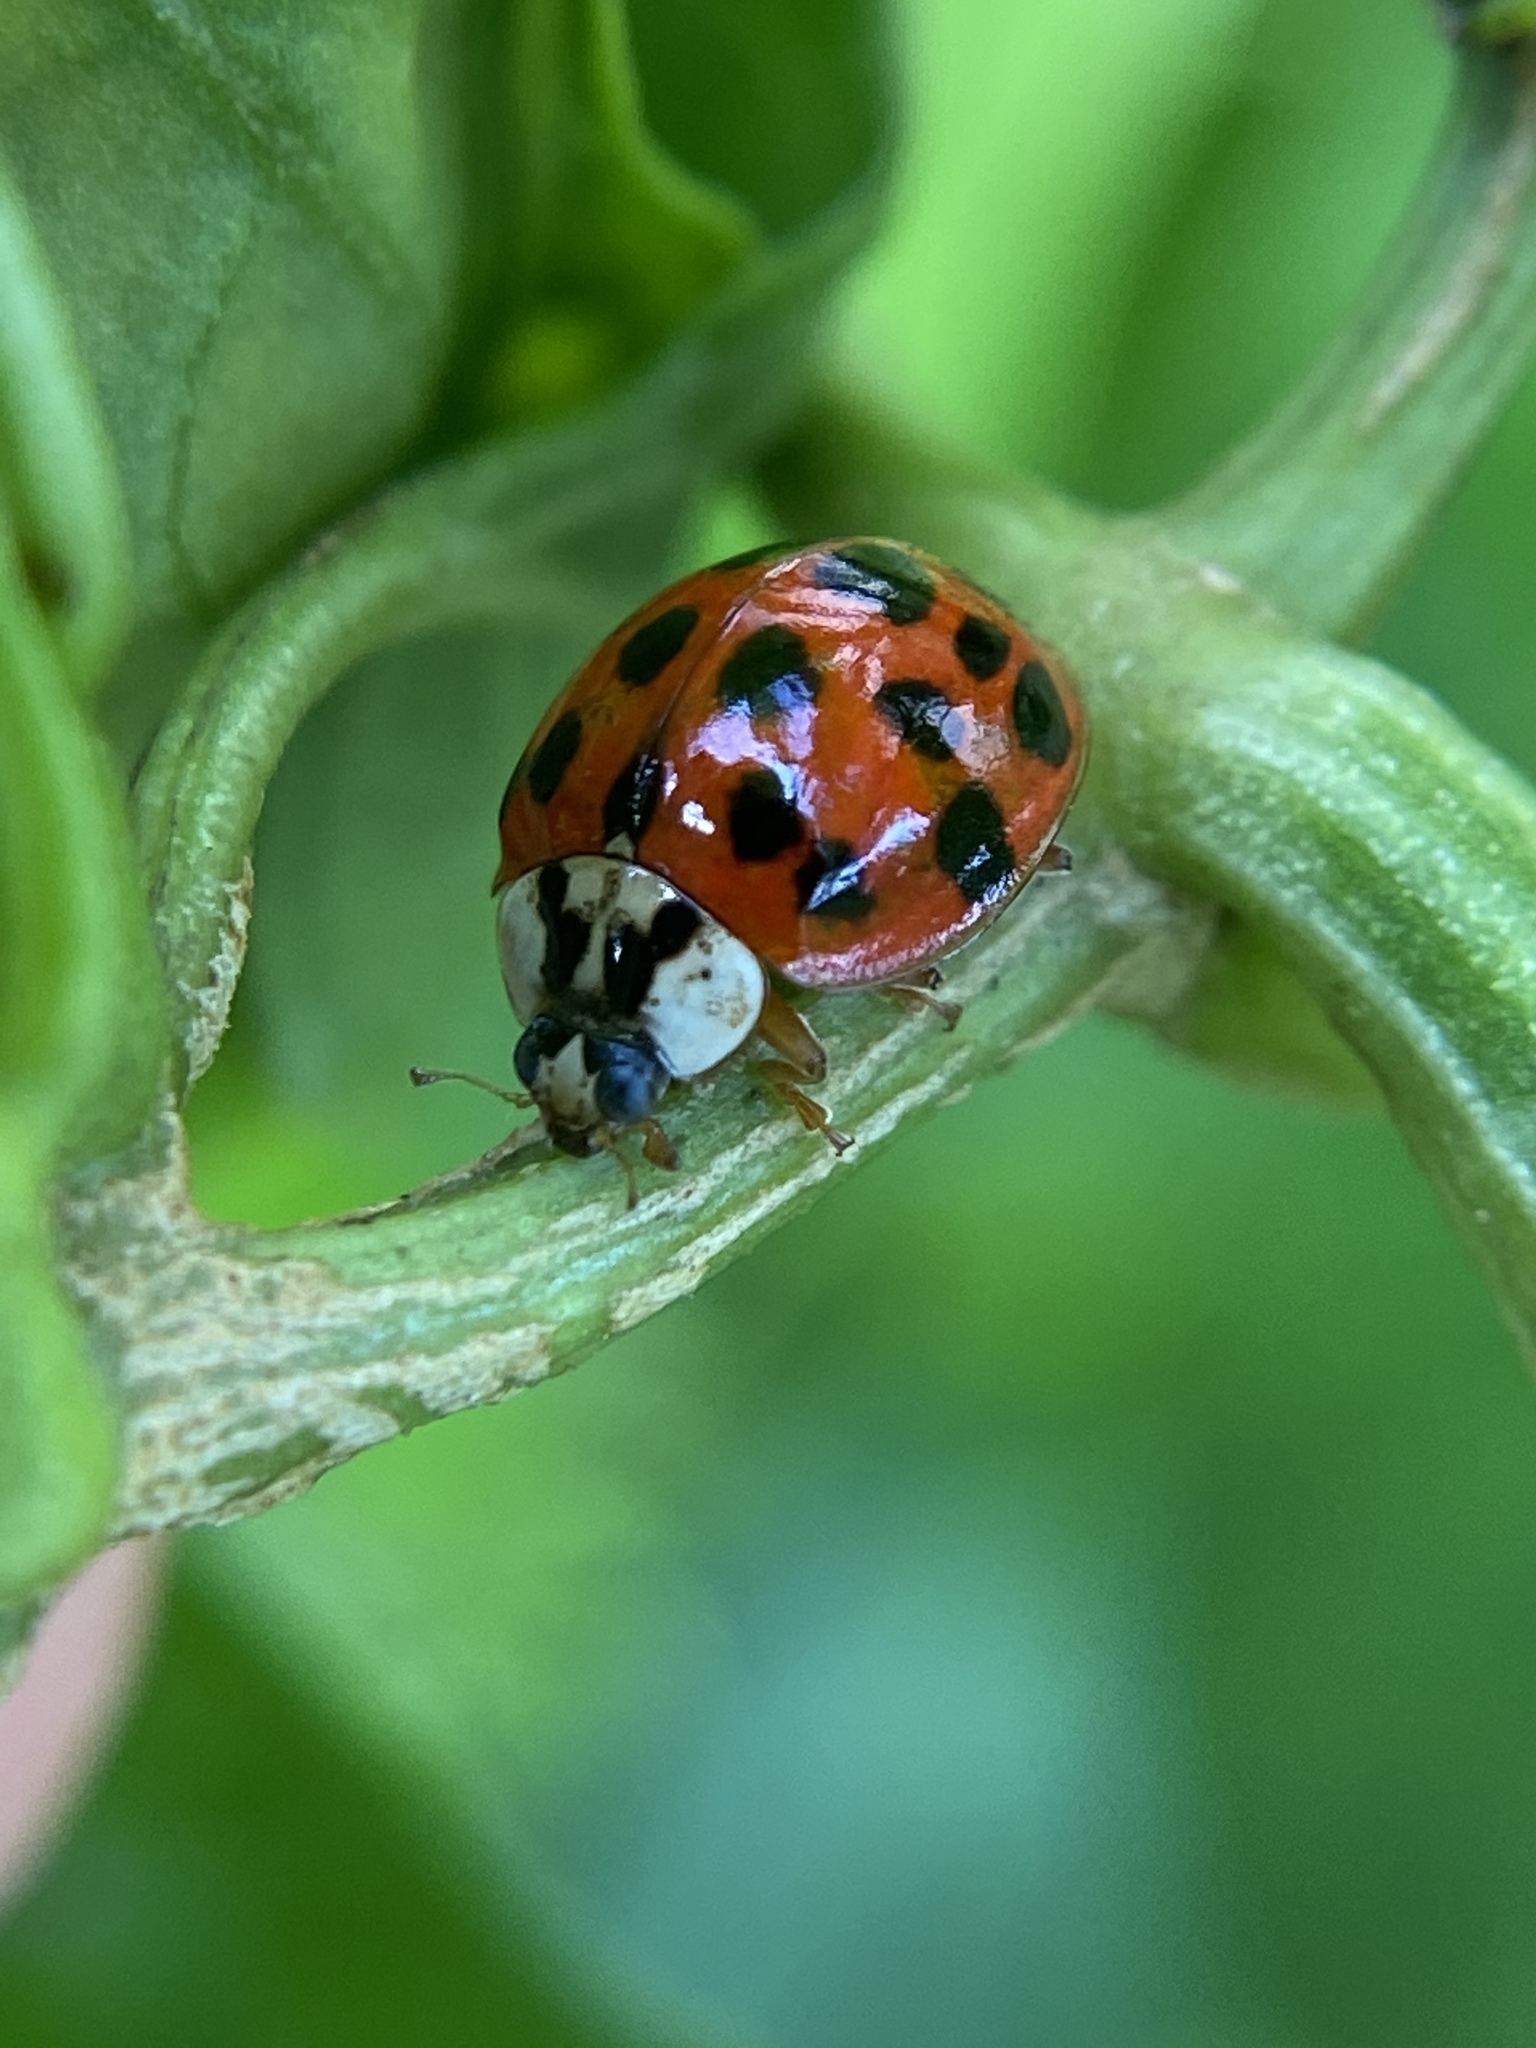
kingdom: Animalia
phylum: Arthropoda
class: Insecta
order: Coleoptera
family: Coccinellidae
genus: Harmonia
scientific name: Harmonia axyridis
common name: Harlequin ladybird
